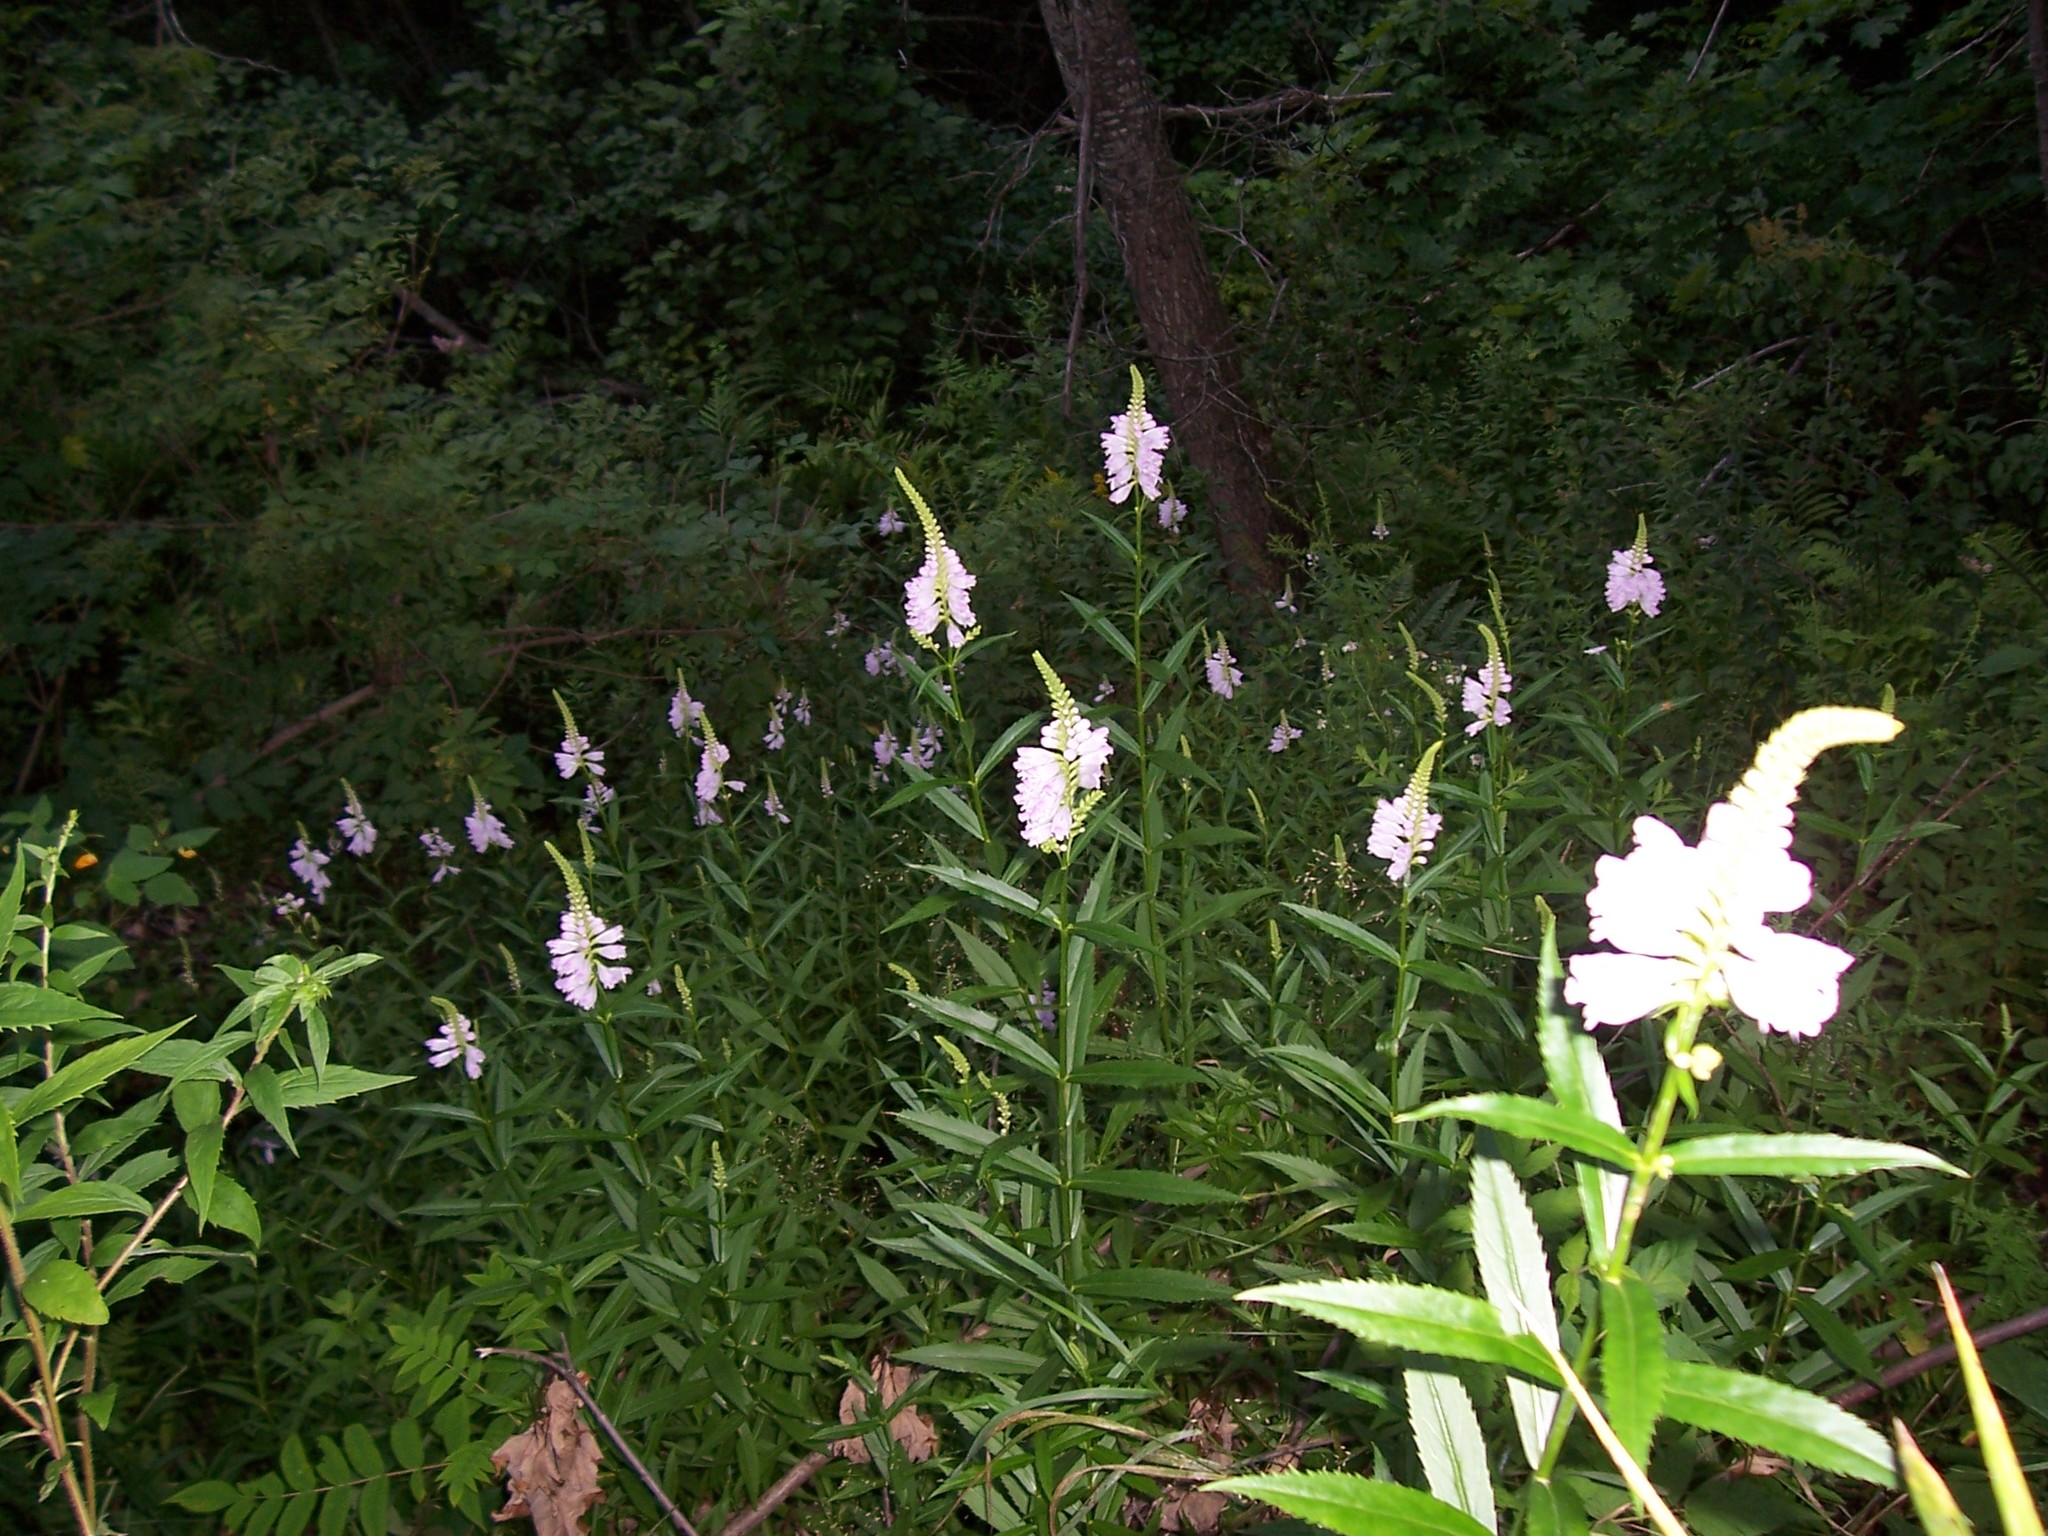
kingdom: Plantae
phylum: Tracheophyta
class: Magnoliopsida
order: Lamiales
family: Lamiaceae
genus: Physostegia
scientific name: Physostegia virginiana
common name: Obedient-plant
